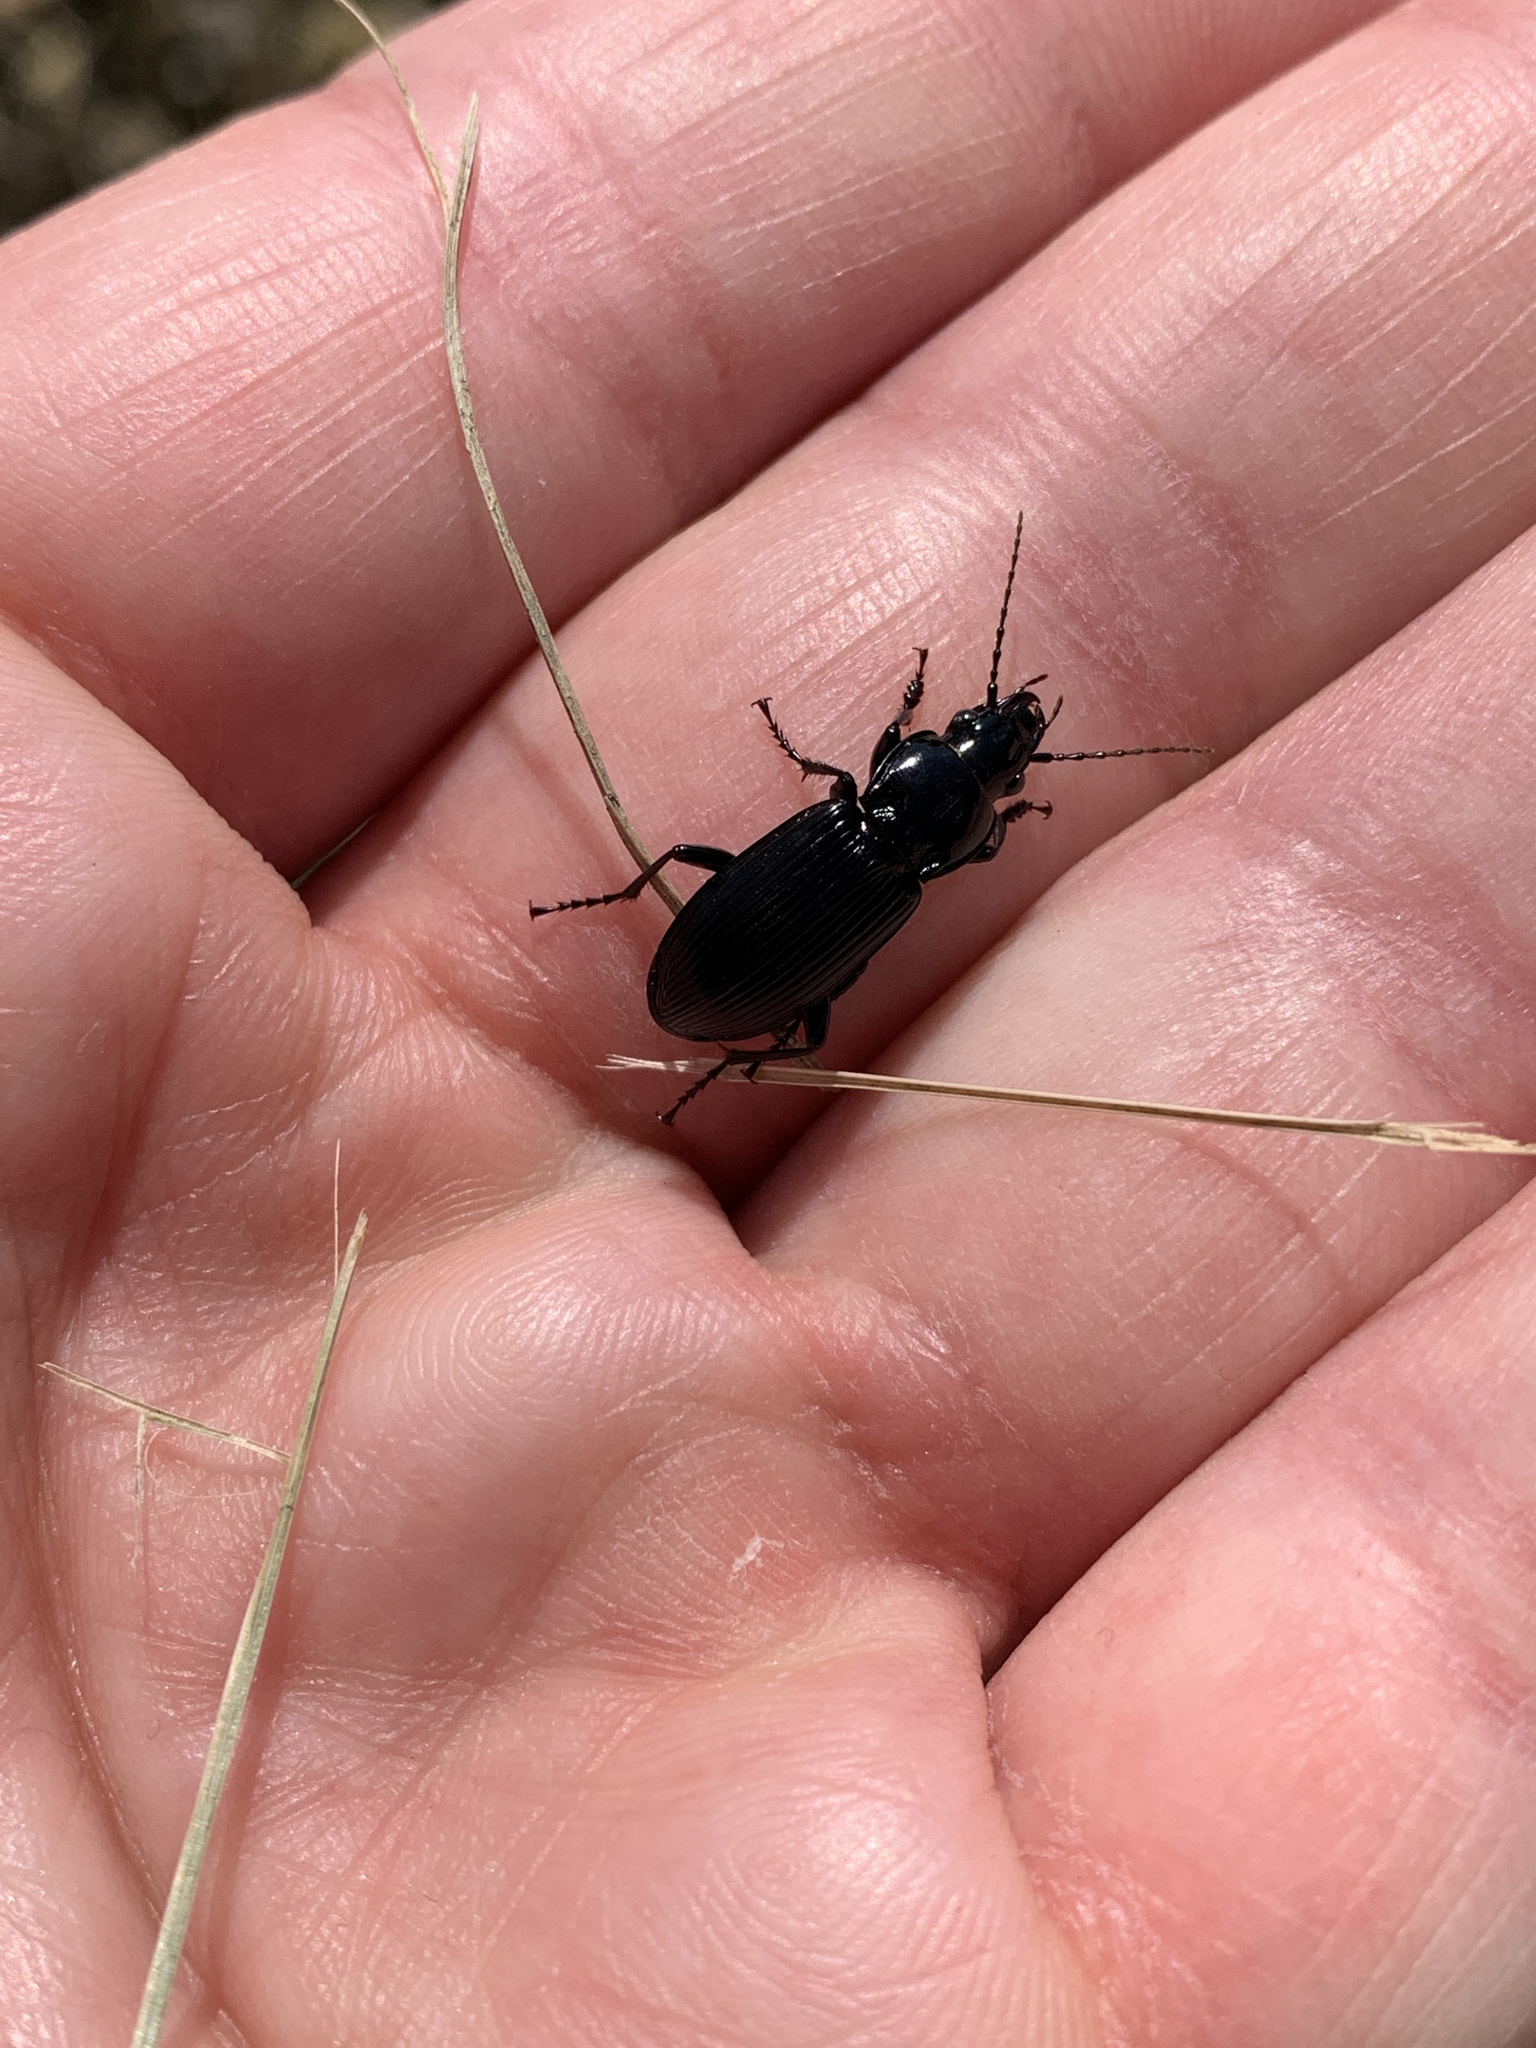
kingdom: Animalia
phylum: Arthropoda
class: Insecta
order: Coleoptera
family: Carabidae
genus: Pterostichus
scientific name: Pterostichus melanarius
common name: European dark harp ground beetle
